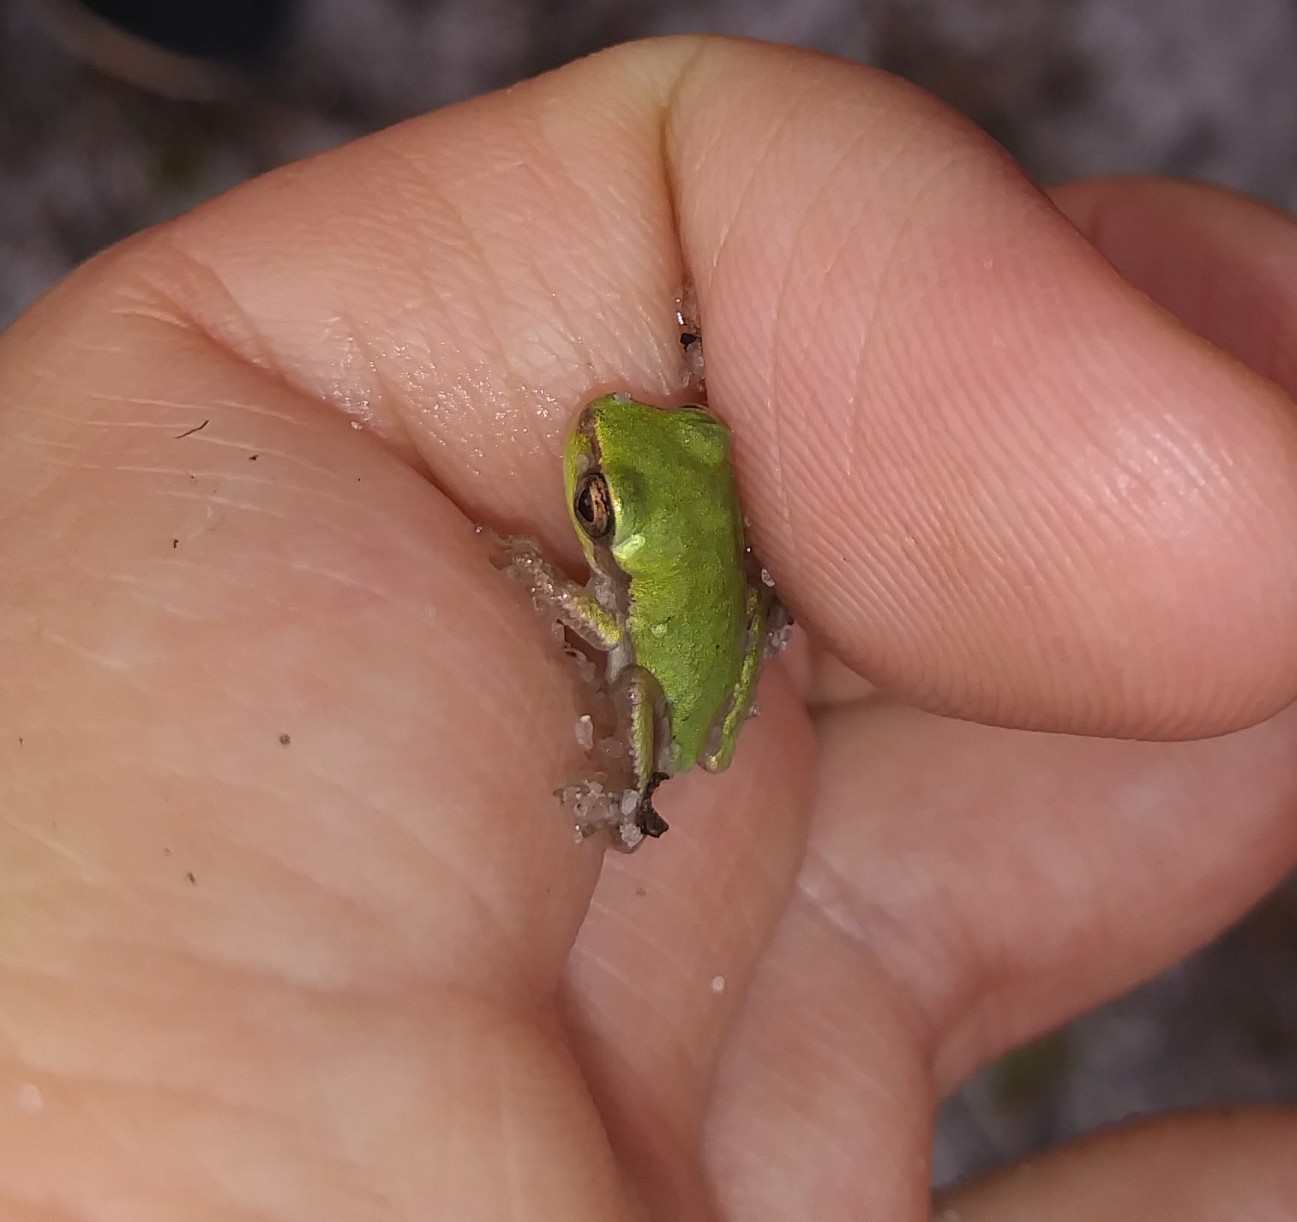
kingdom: Animalia
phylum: Chordata
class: Amphibia
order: Anura
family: Hylidae
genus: Hyla
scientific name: Hyla femoralis
